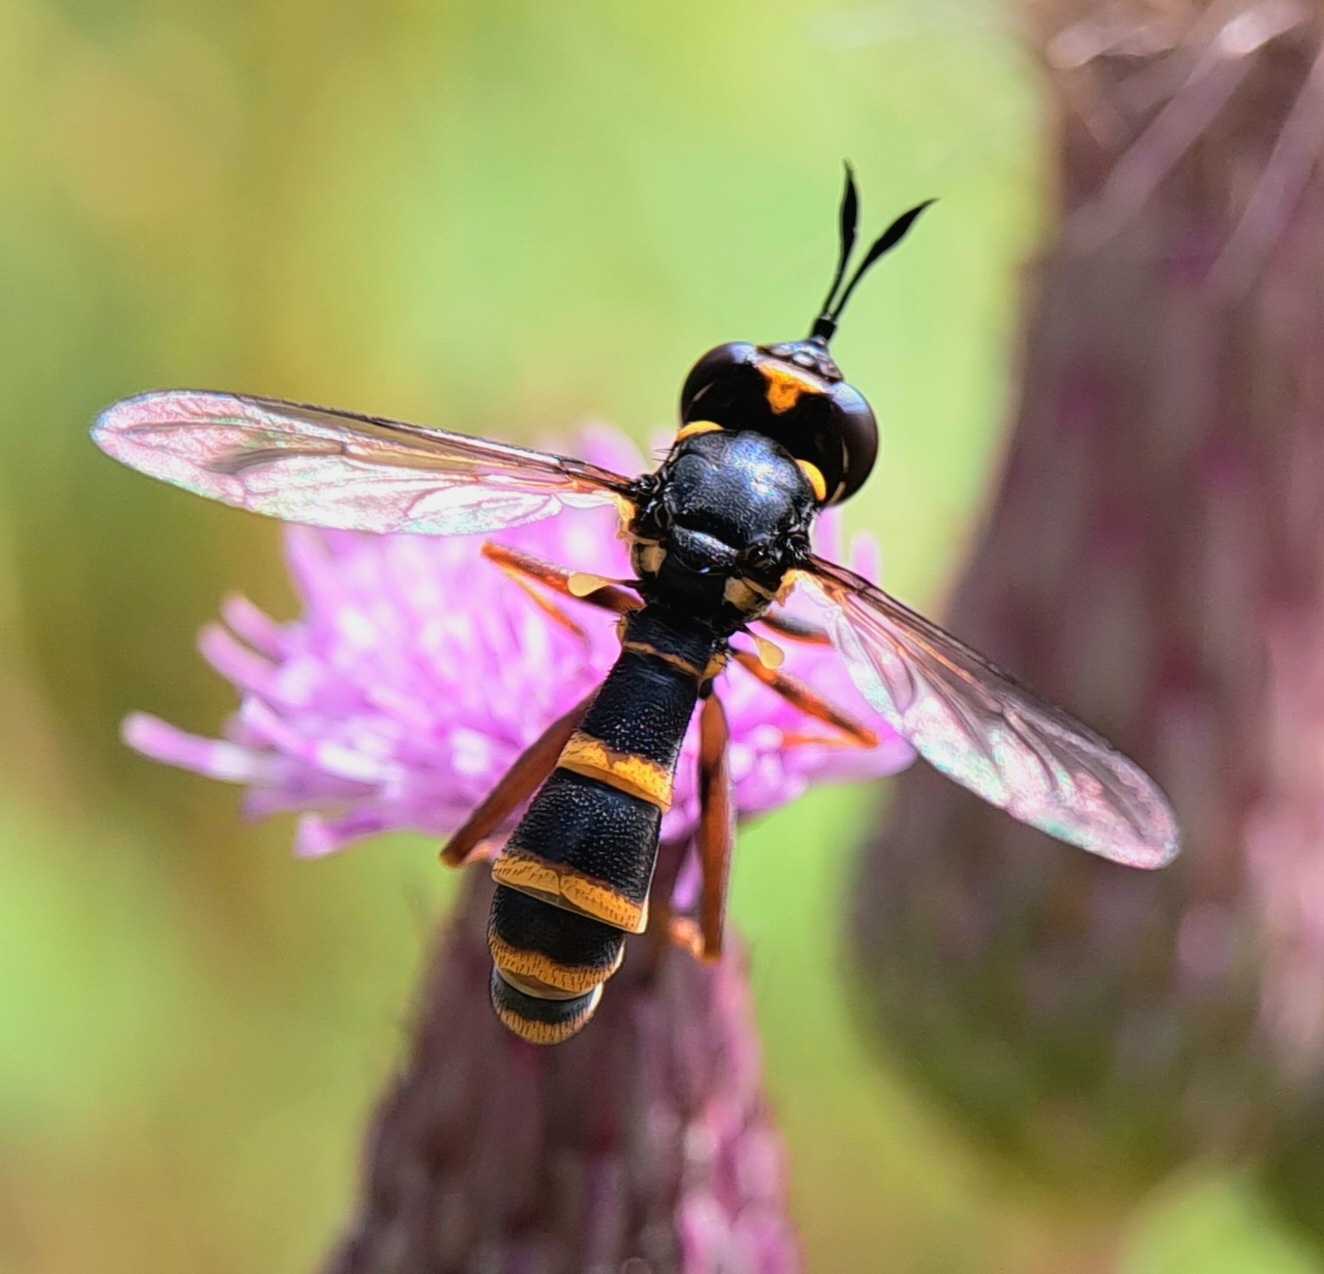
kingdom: Animalia
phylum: Arthropoda
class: Insecta
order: Diptera
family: Conopidae
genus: Conops
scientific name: Conops quadrifasciatus
